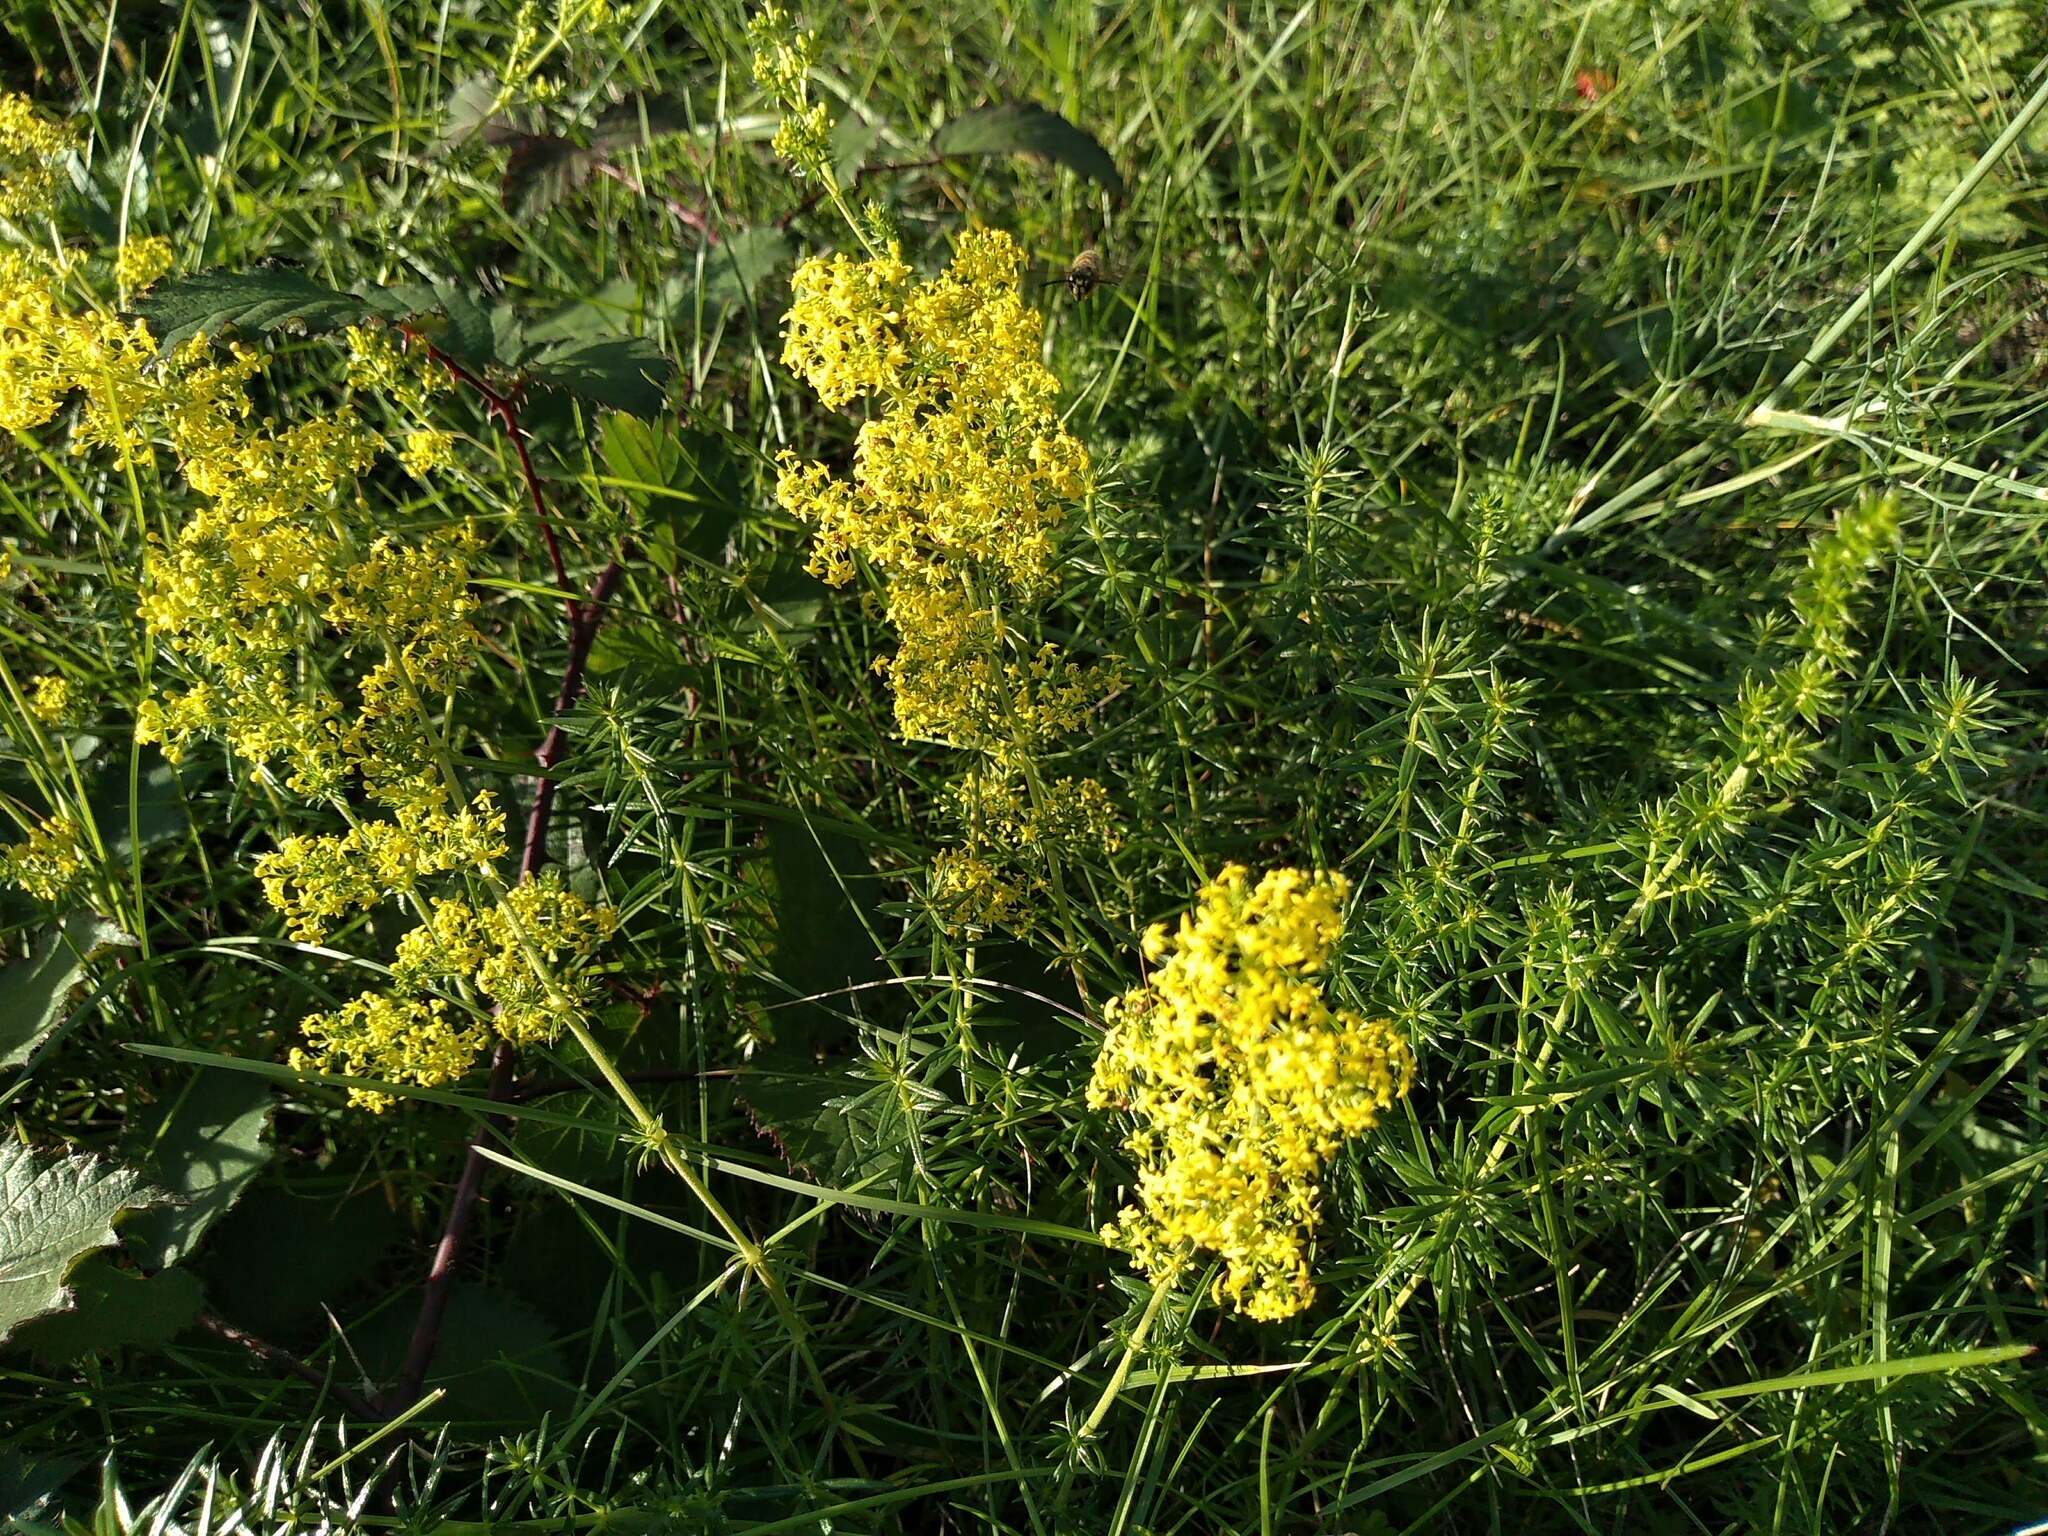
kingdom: Plantae
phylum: Tracheophyta
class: Magnoliopsida
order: Gentianales
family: Rubiaceae
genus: Galium
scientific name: Galium verum
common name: Lady's bedstraw
